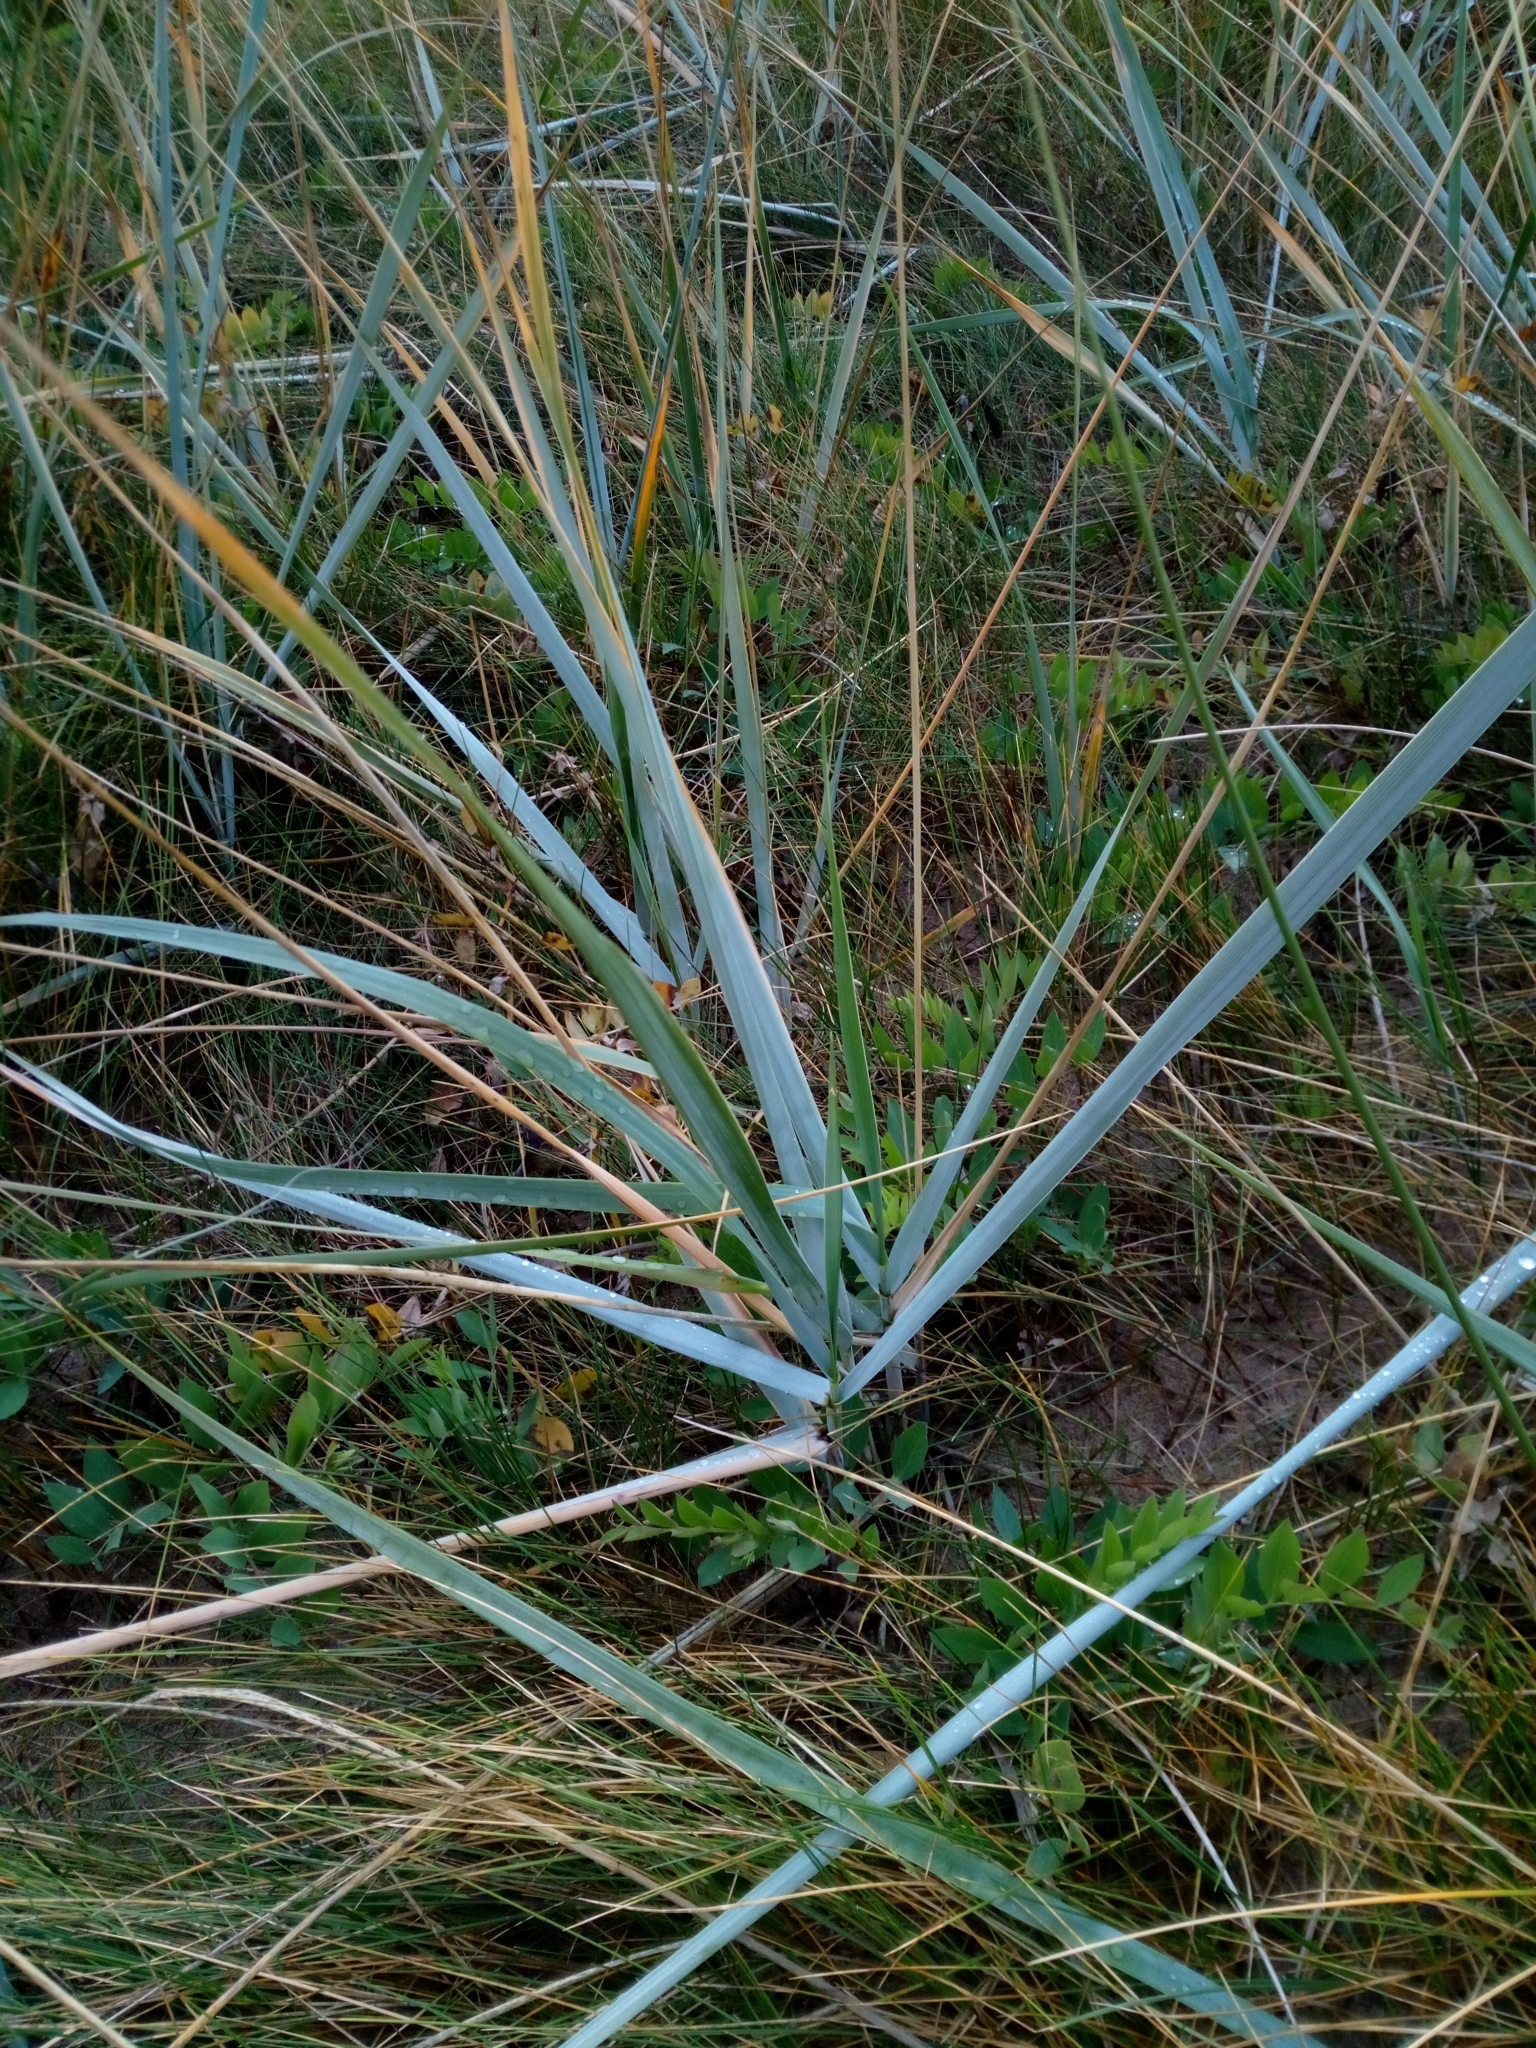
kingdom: Plantae
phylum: Tracheophyta
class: Liliopsida
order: Poales
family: Poaceae
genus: Leymus
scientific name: Leymus arenarius
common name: Lyme-grass
